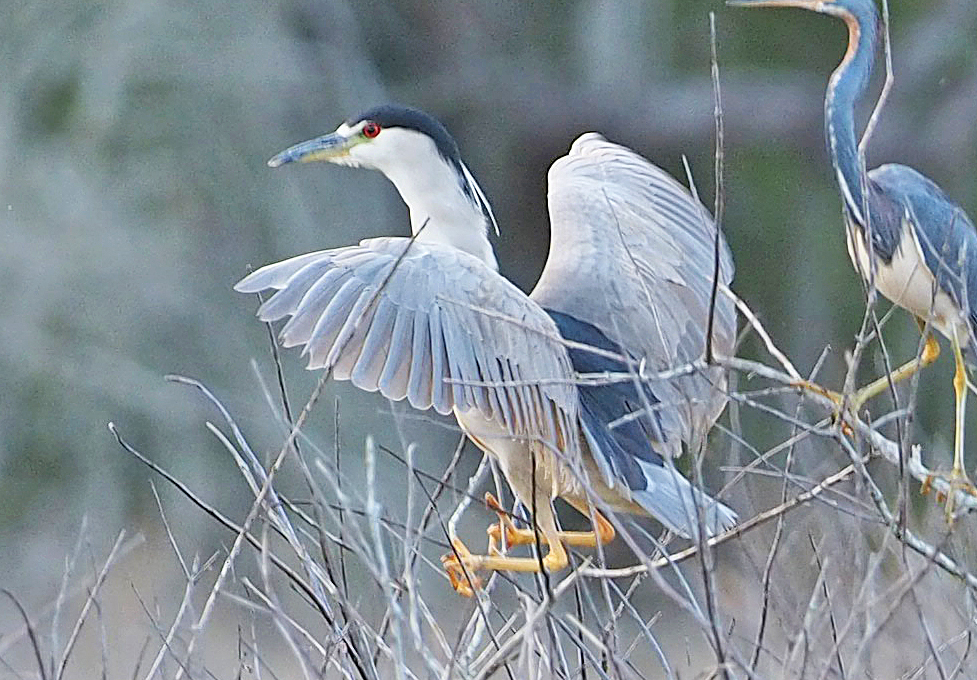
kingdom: Animalia
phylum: Chordata
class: Aves
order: Pelecaniformes
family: Ardeidae
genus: Nycticorax
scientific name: Nycticorax nycticorax
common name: Black-crowned night heron
